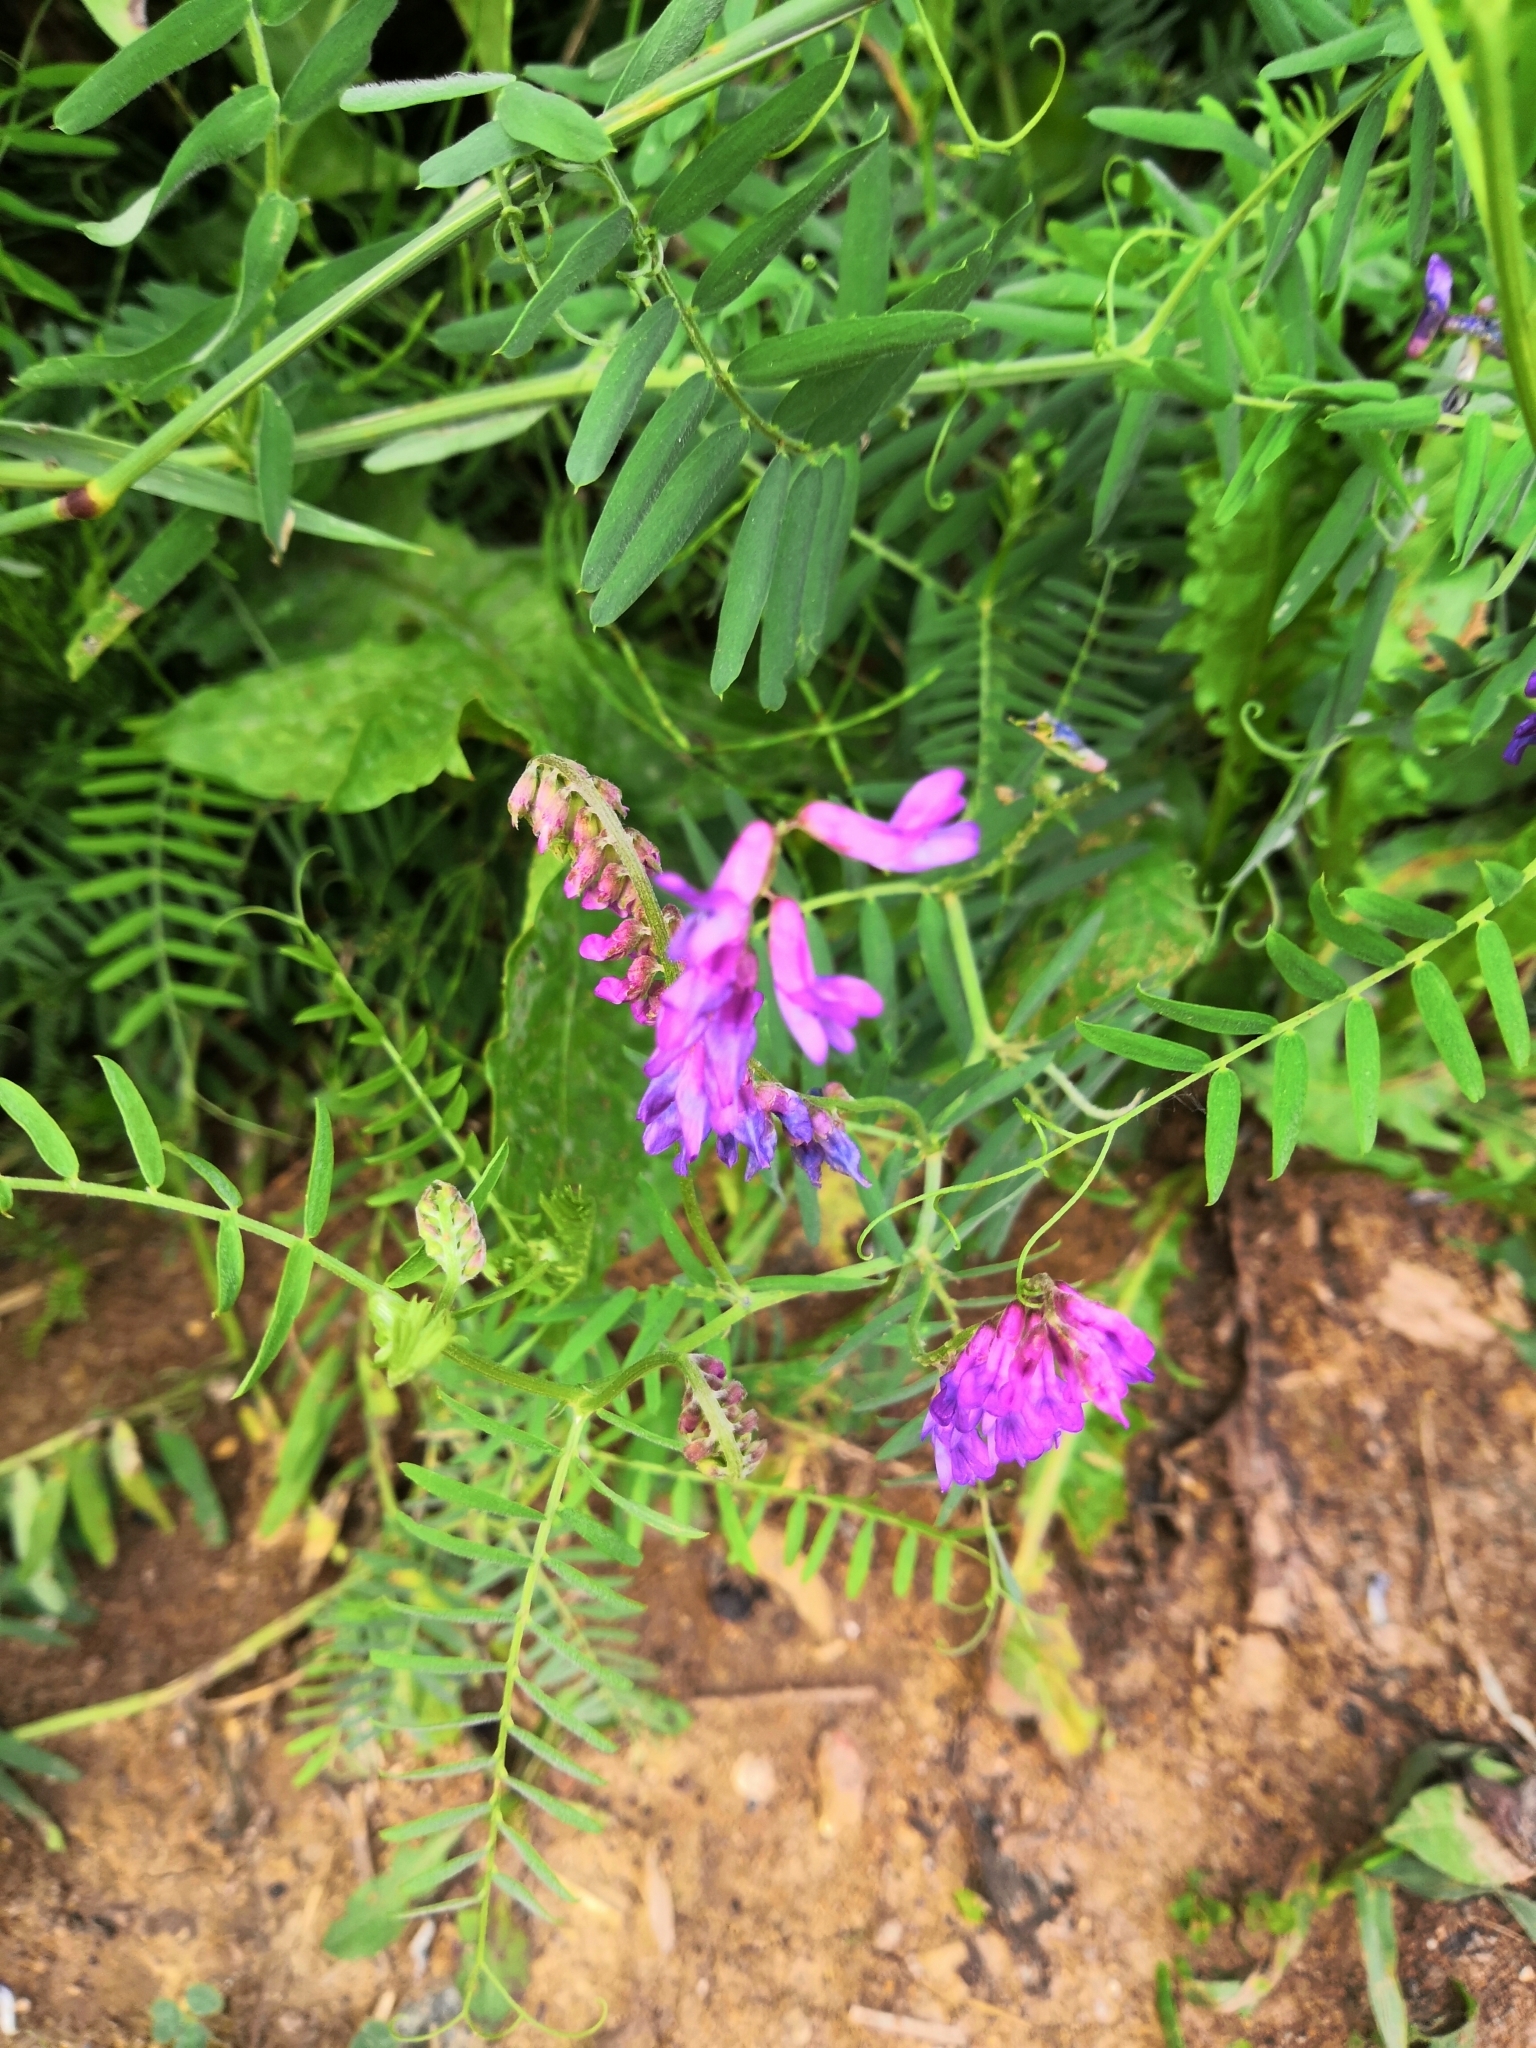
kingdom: Plantae
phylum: Tracheophyta
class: Magnoliopsida
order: Fabales
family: Fabaceae
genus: Vicia
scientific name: Vicia cracca
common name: Bird vetch
